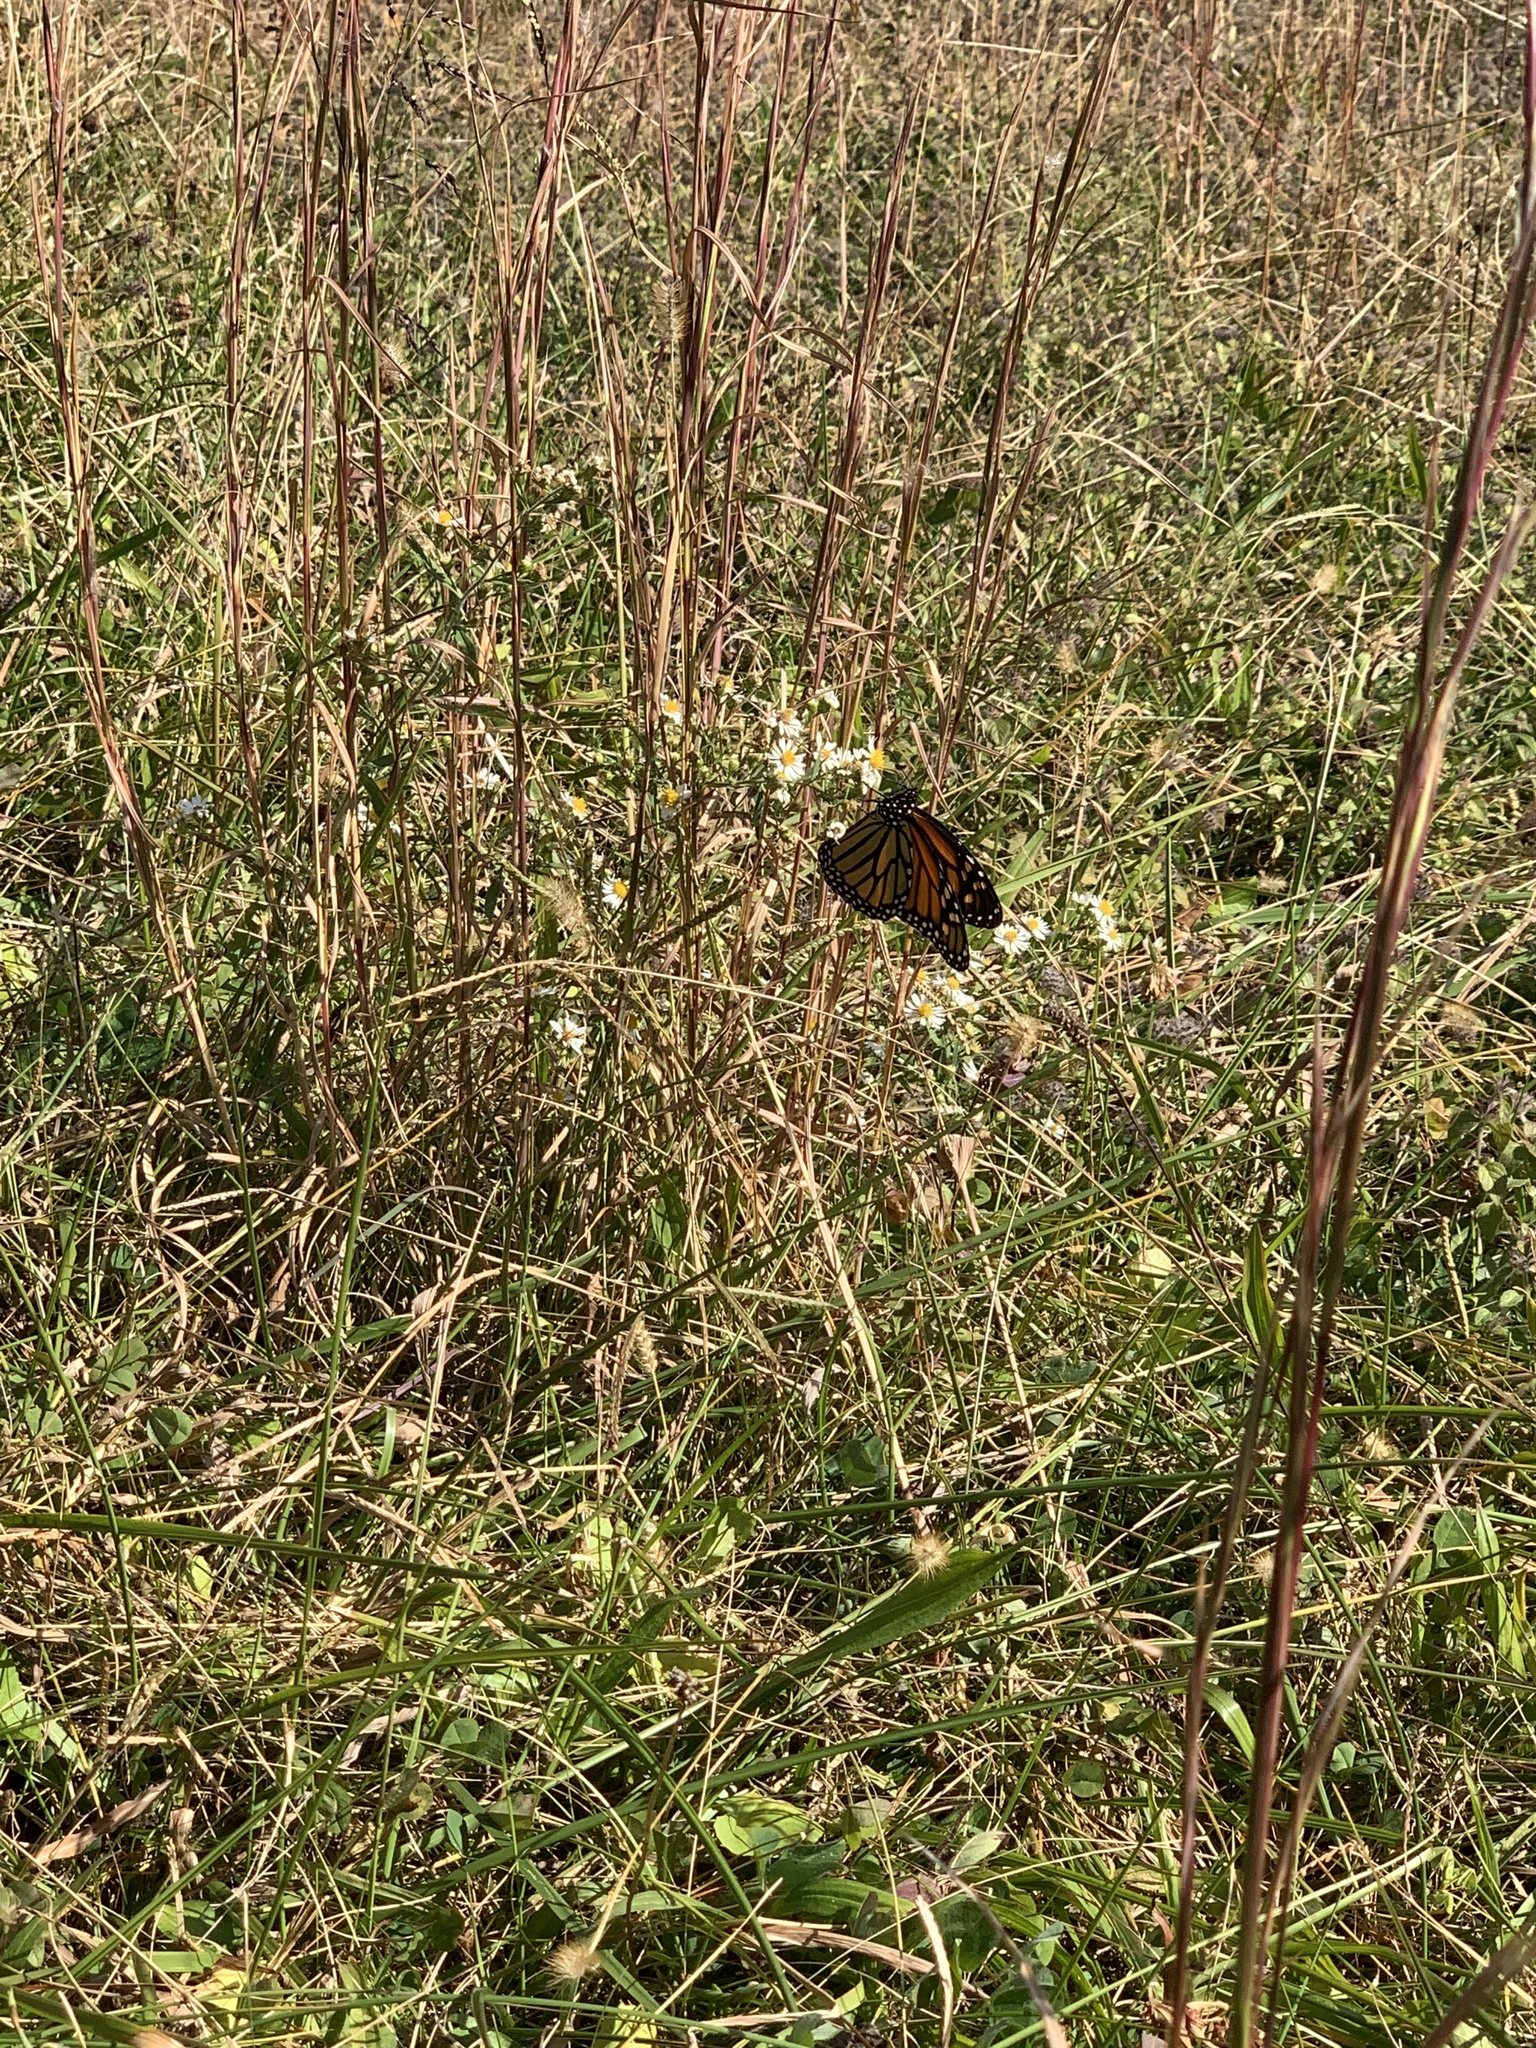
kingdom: Animalia
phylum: Arthropoda
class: Insecta
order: Lepidoptera
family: Nymphalidae
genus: Danaus
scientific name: Danaus plexippus
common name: Monarch
